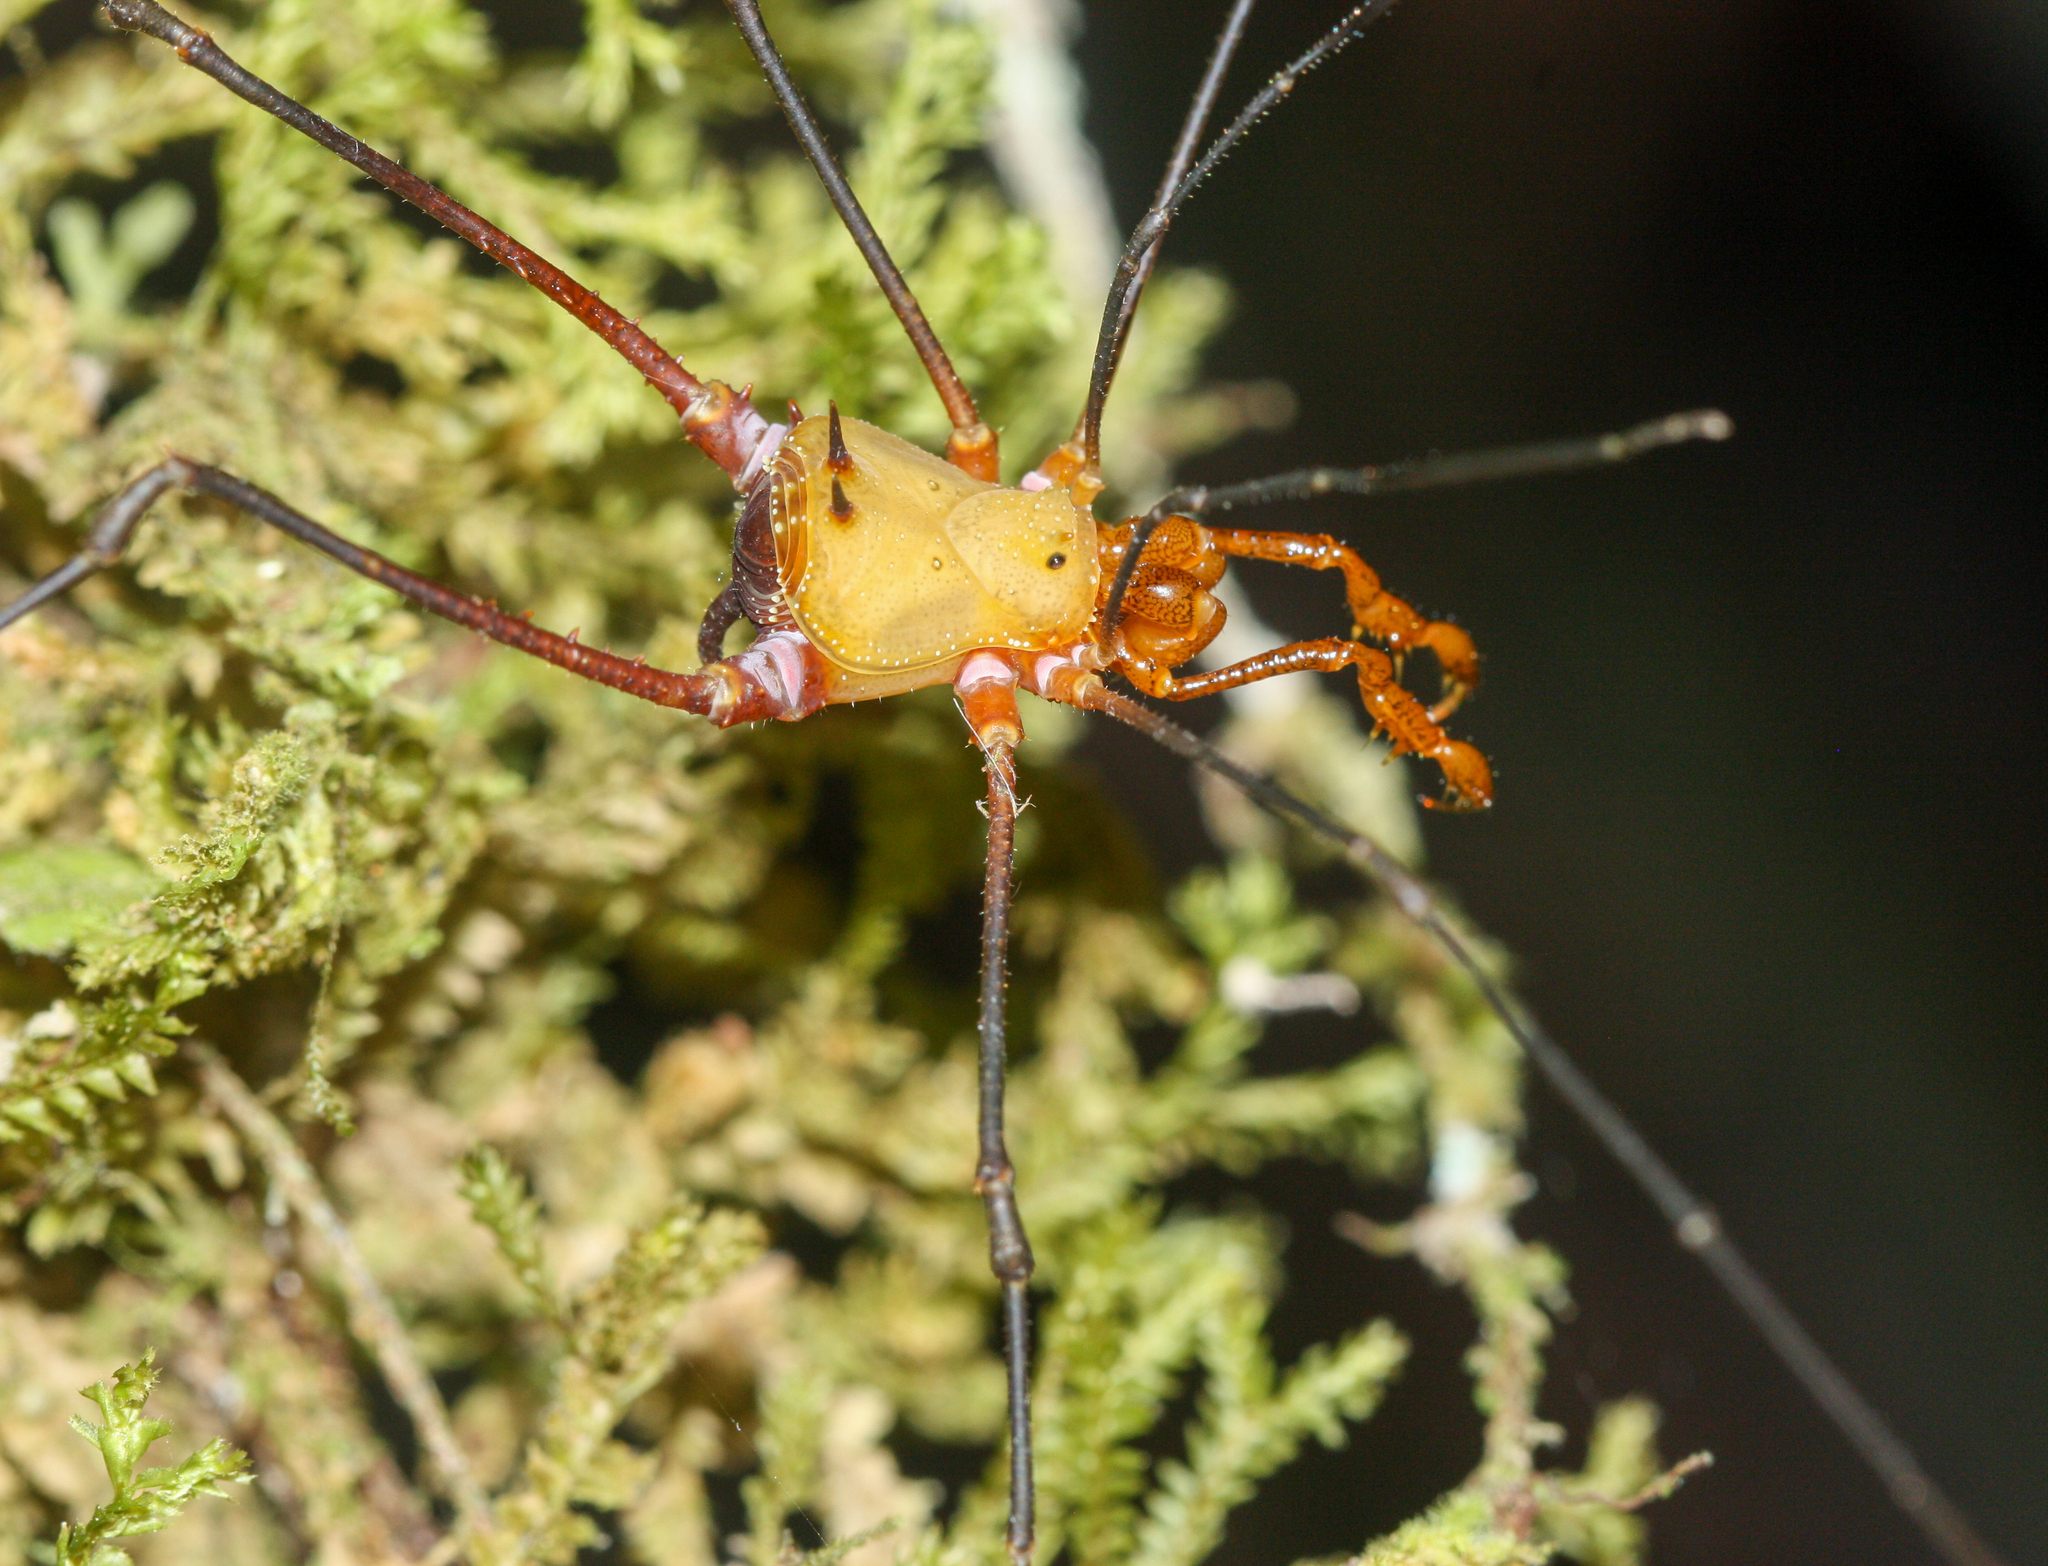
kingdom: Animalia
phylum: Arthropoda
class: Arachnida
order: Opiliones
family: Cranaidae
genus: Ventrivomer
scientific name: Ventrivomer ancyrophorus
